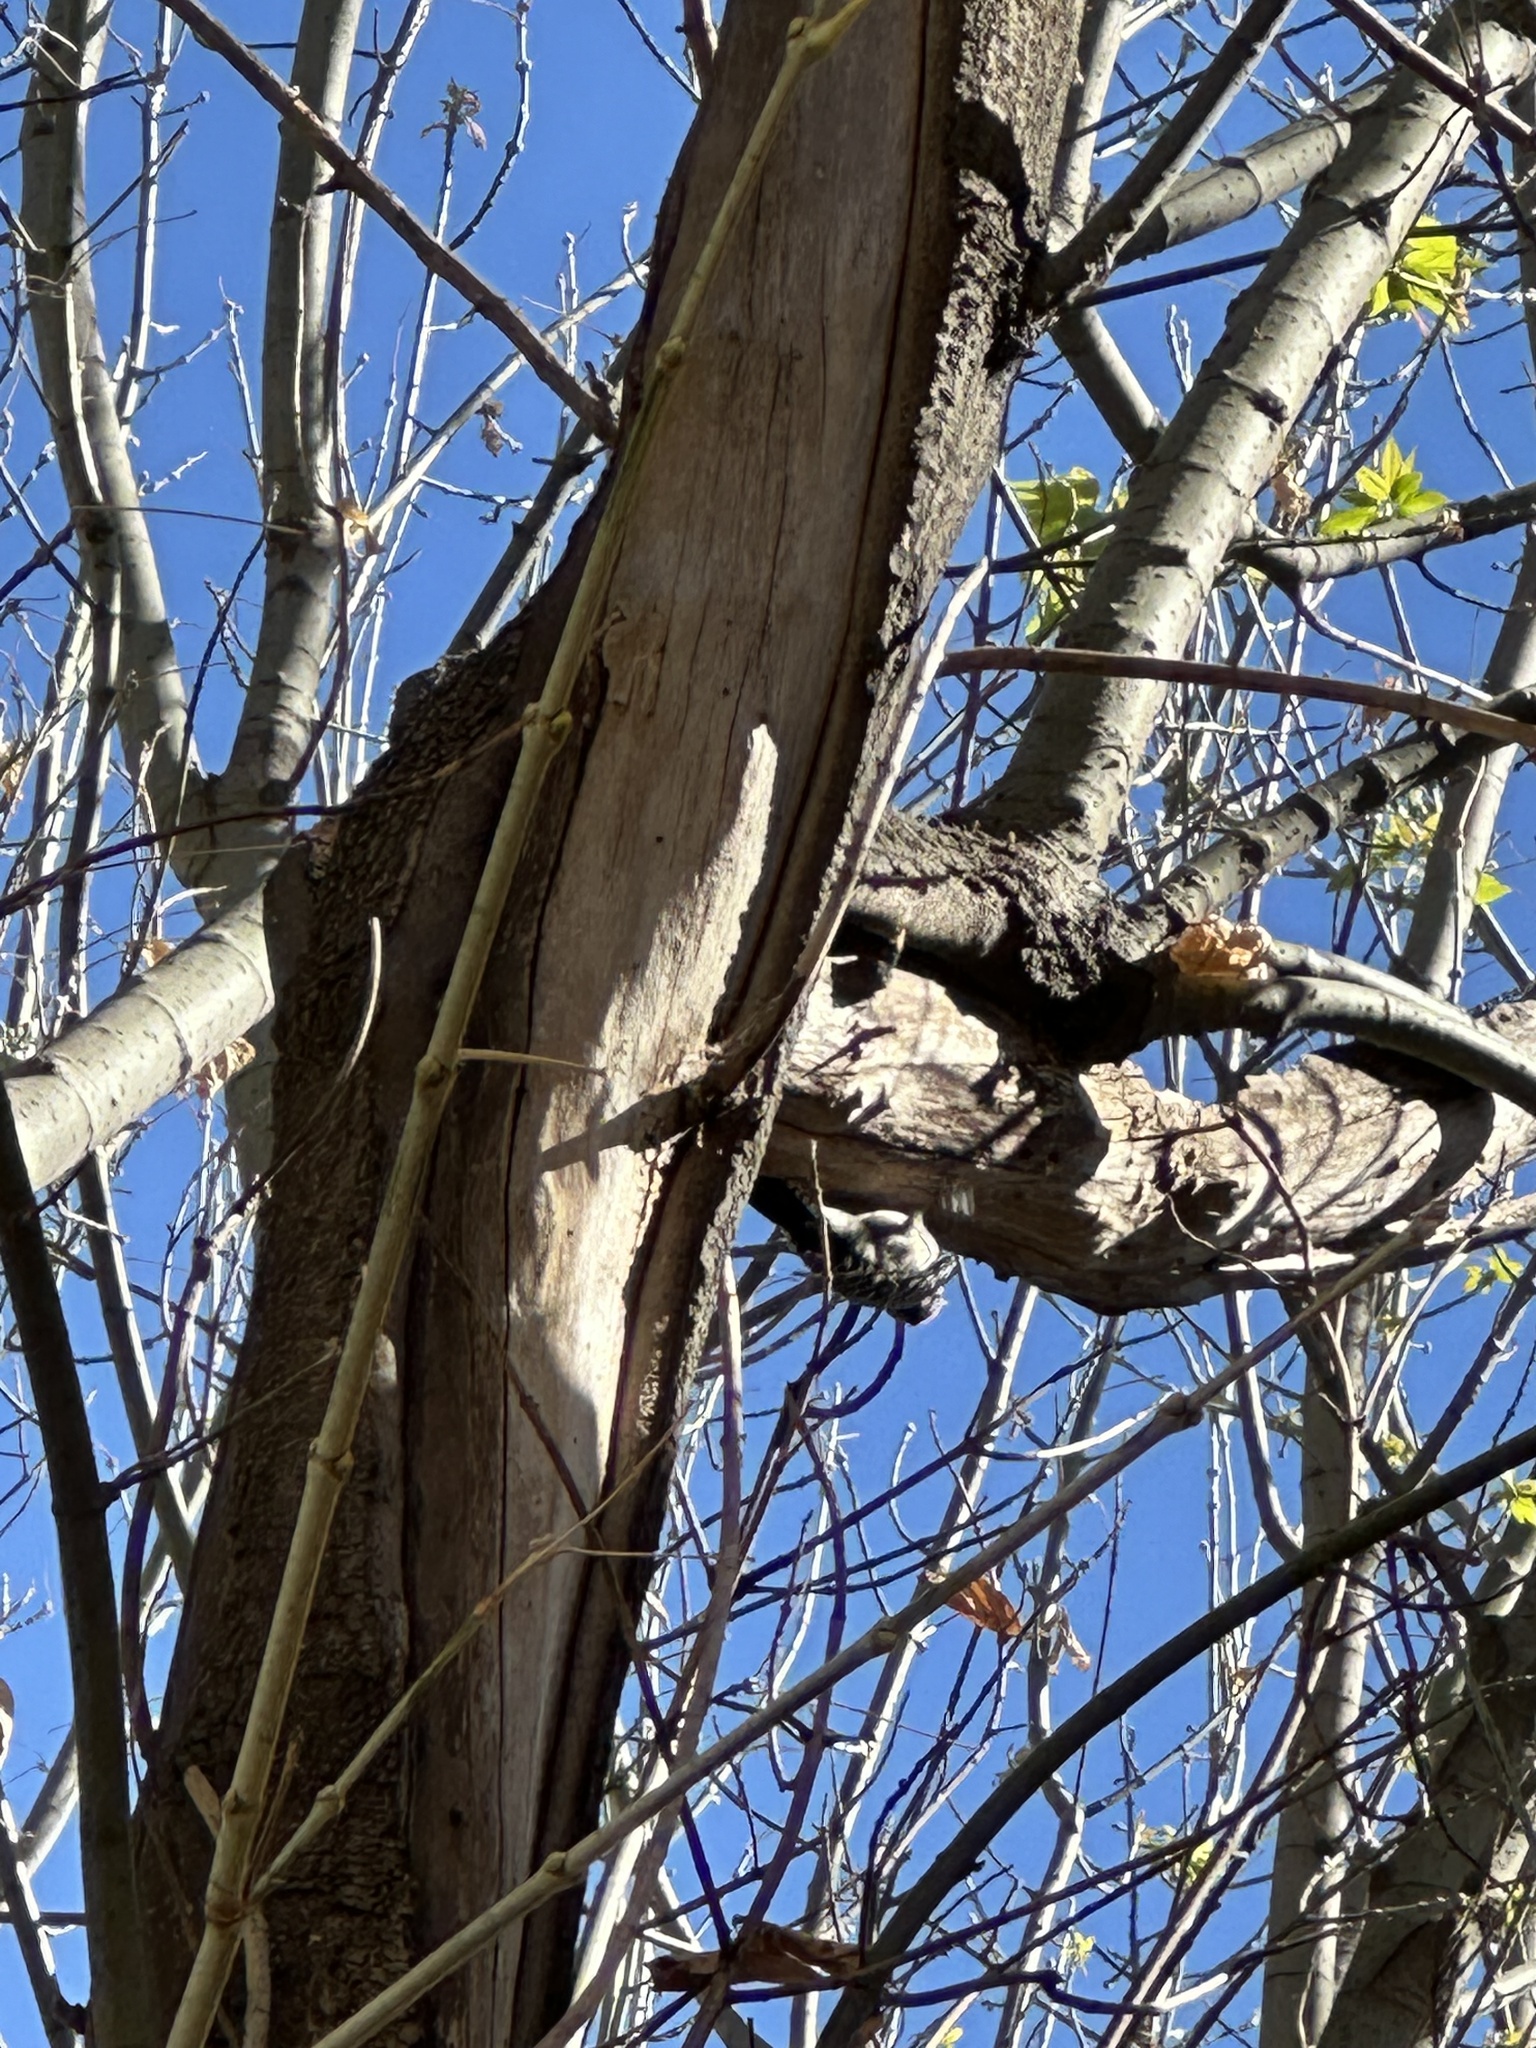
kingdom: Animalia
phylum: Chordata
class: Aves
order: Piciformes
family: Picidae
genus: Dryobates
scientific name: Dryobates scalaris
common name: Ladder-backed woodpecker
